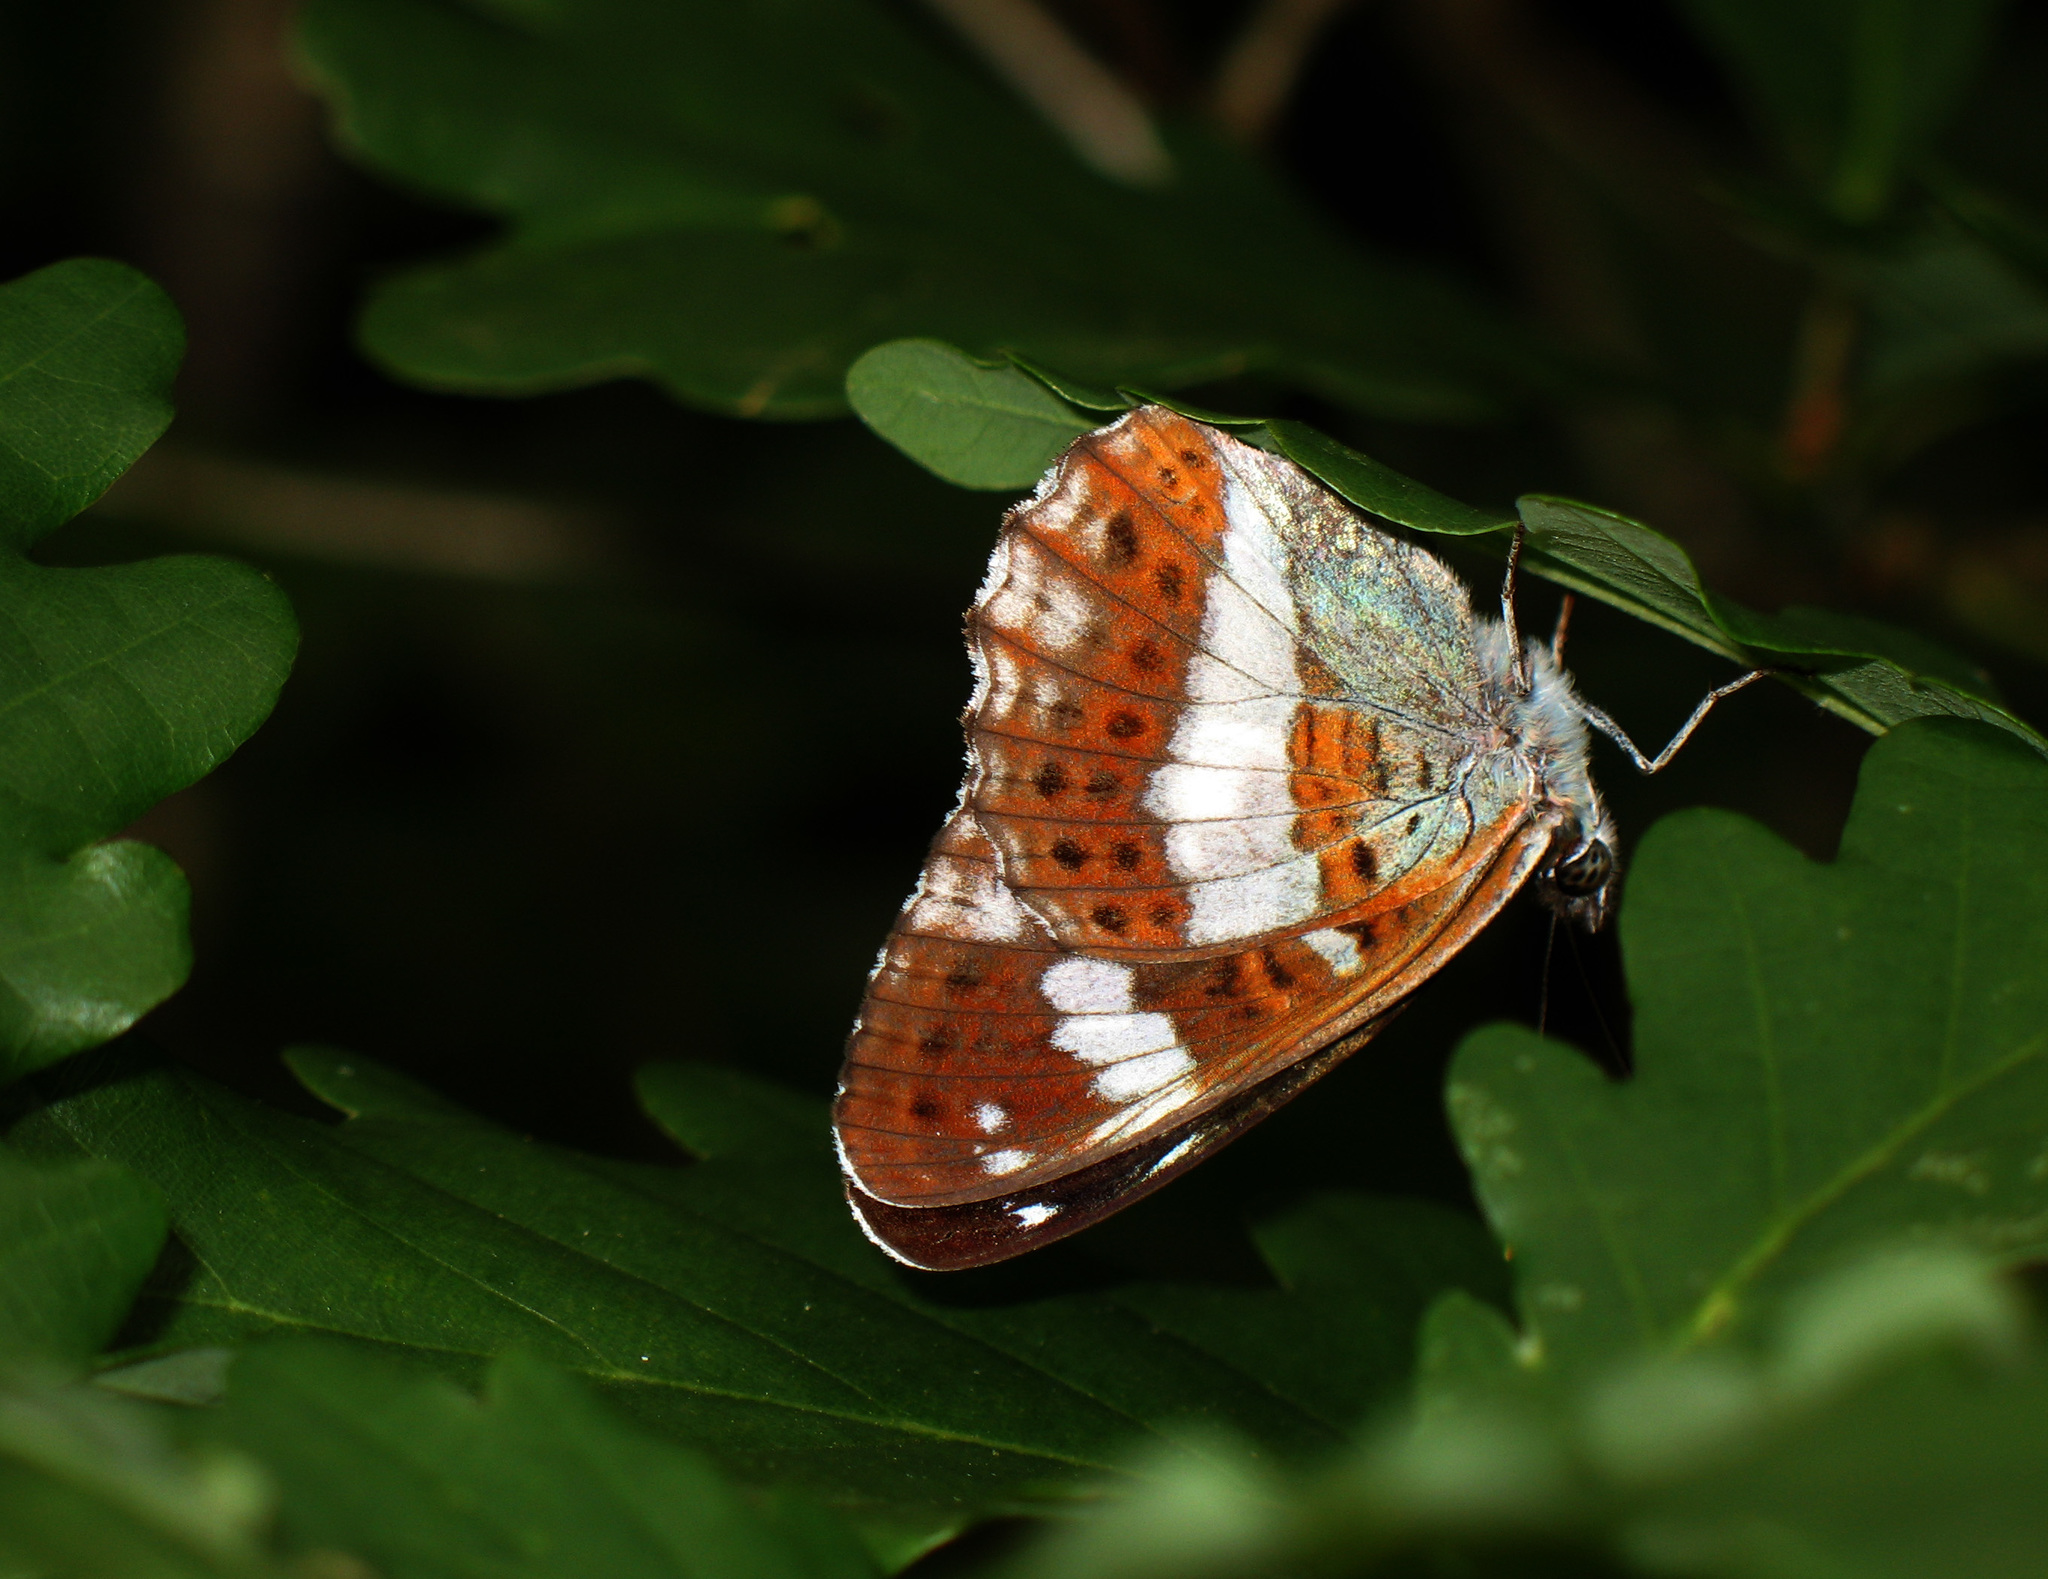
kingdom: Animalia
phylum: Arthropoda
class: Insecta
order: Lepidoptera
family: Nymphalidae
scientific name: Nymphalidae
